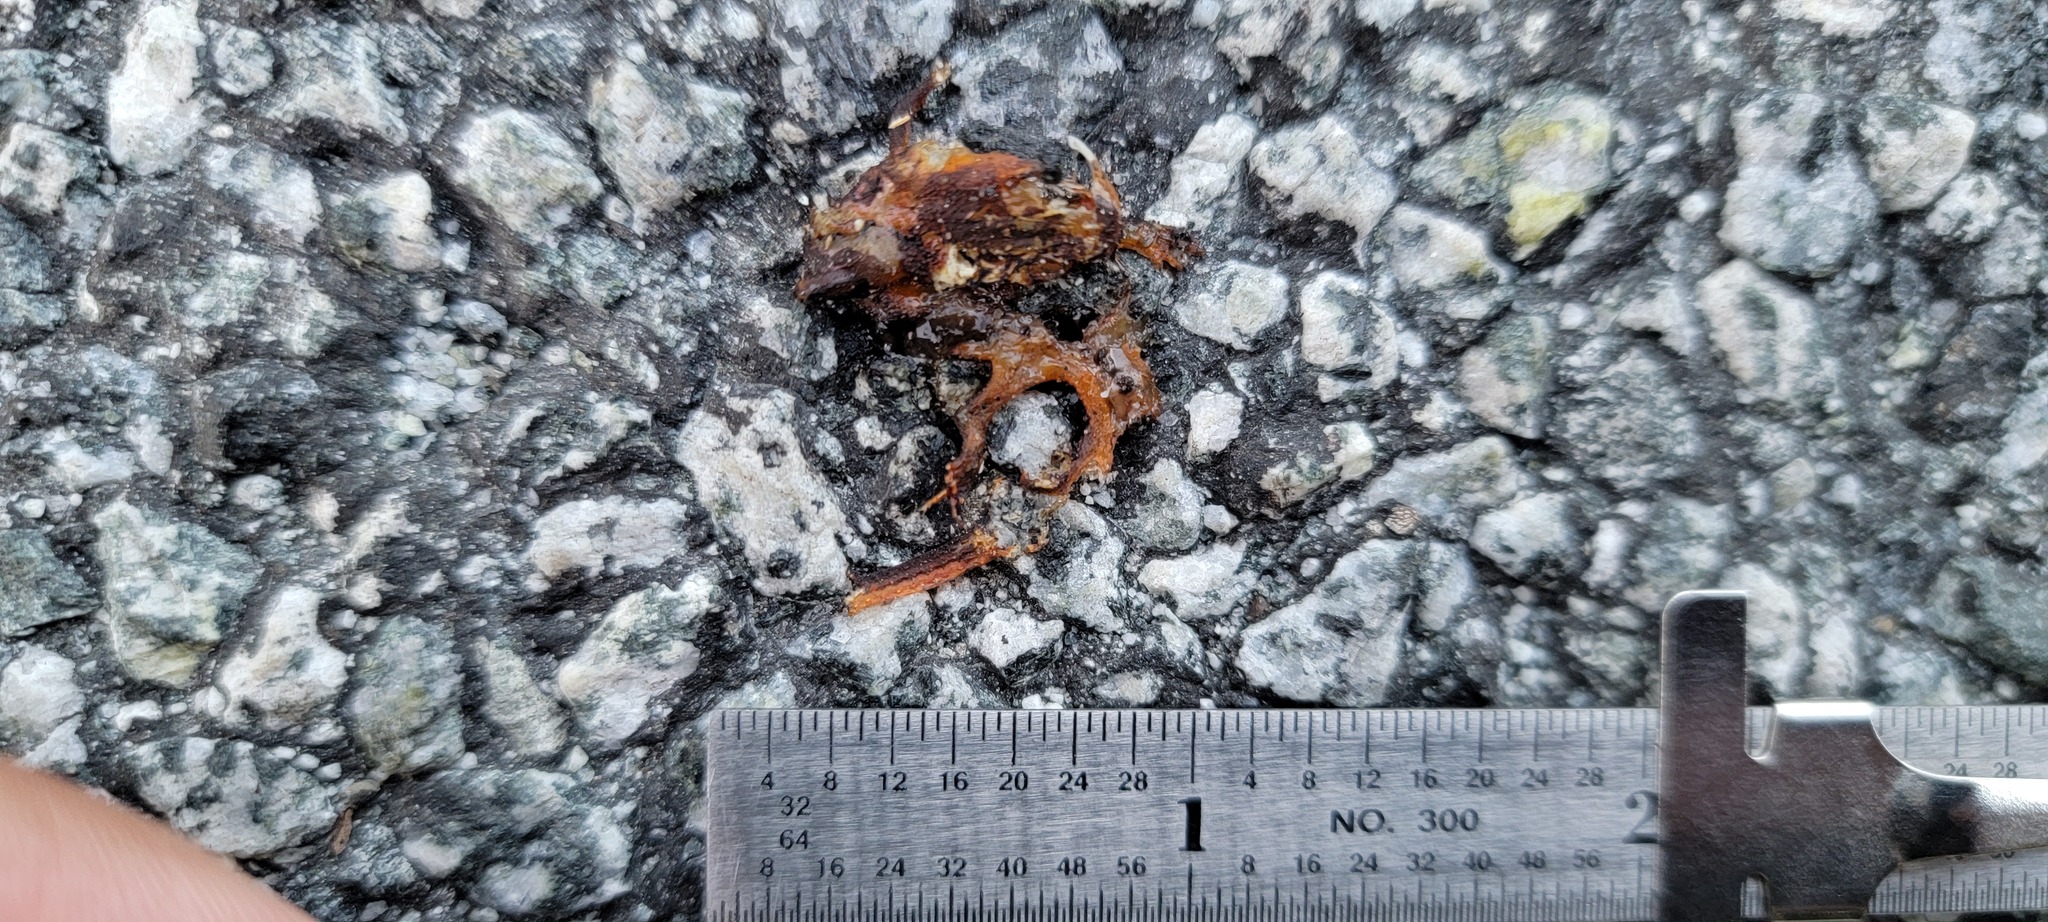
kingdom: Animalia
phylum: Chordata
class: Amphibia
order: Caudata
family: Salamandridae
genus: Taricha
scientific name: Taricha
